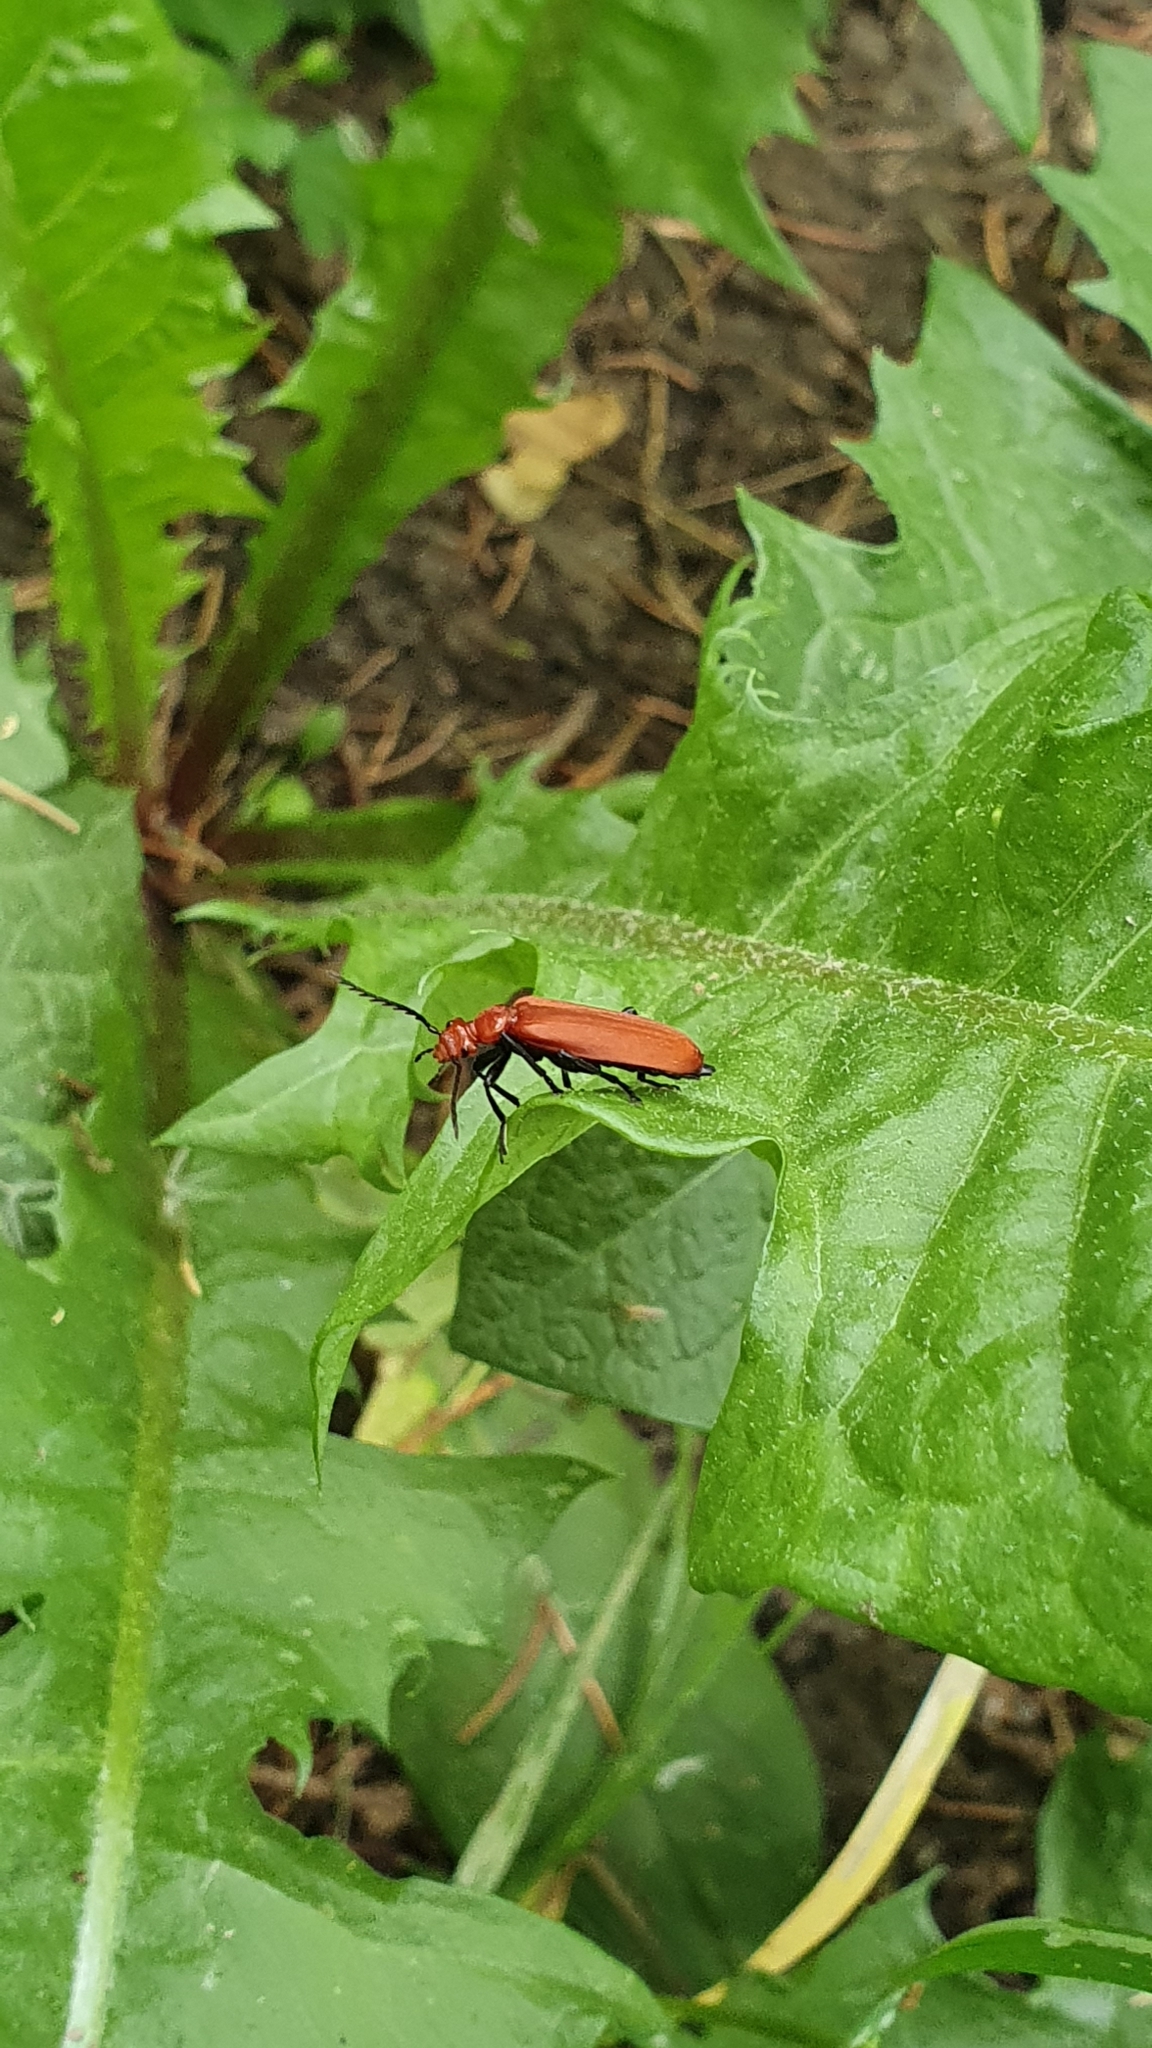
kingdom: Animalia
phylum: Arthropoda
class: Insecta
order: Coleoptera
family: Pyrochroidae
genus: Pyrochroa
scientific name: Pyrochroa serraticornis
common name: Red-headed cardinal beetle
